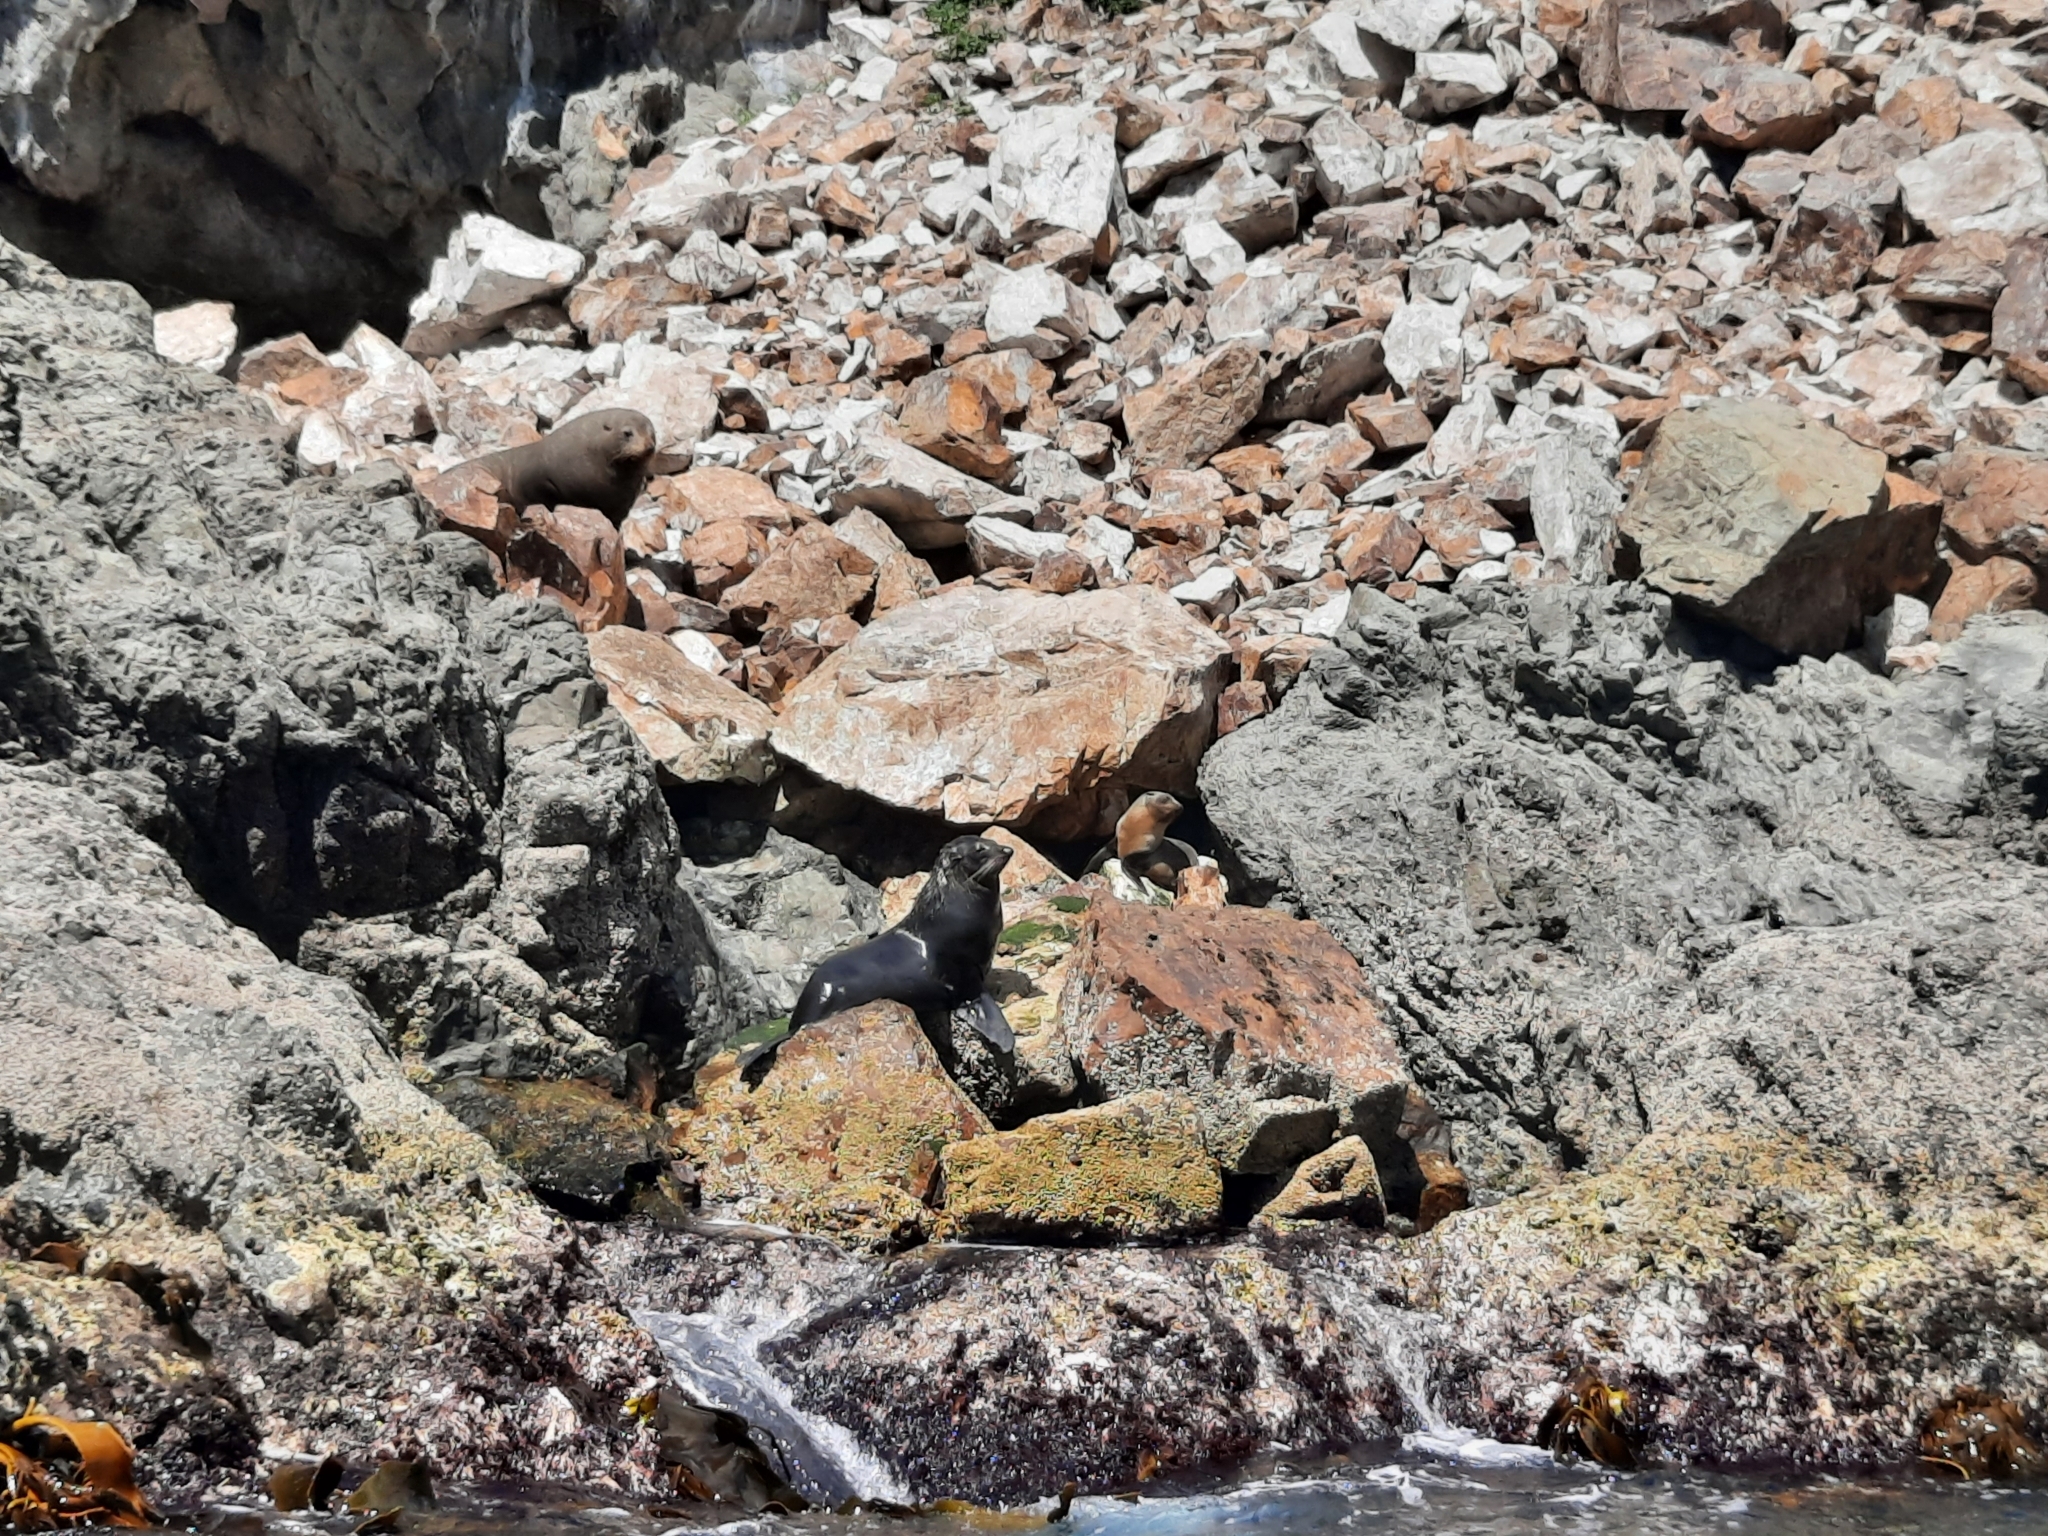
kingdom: Animalia
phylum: Chordata
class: Mammalia
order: Carnivora
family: Otariidae
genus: Arctocephalus
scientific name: Arctocephalus forsteri
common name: New zealand fur seal
